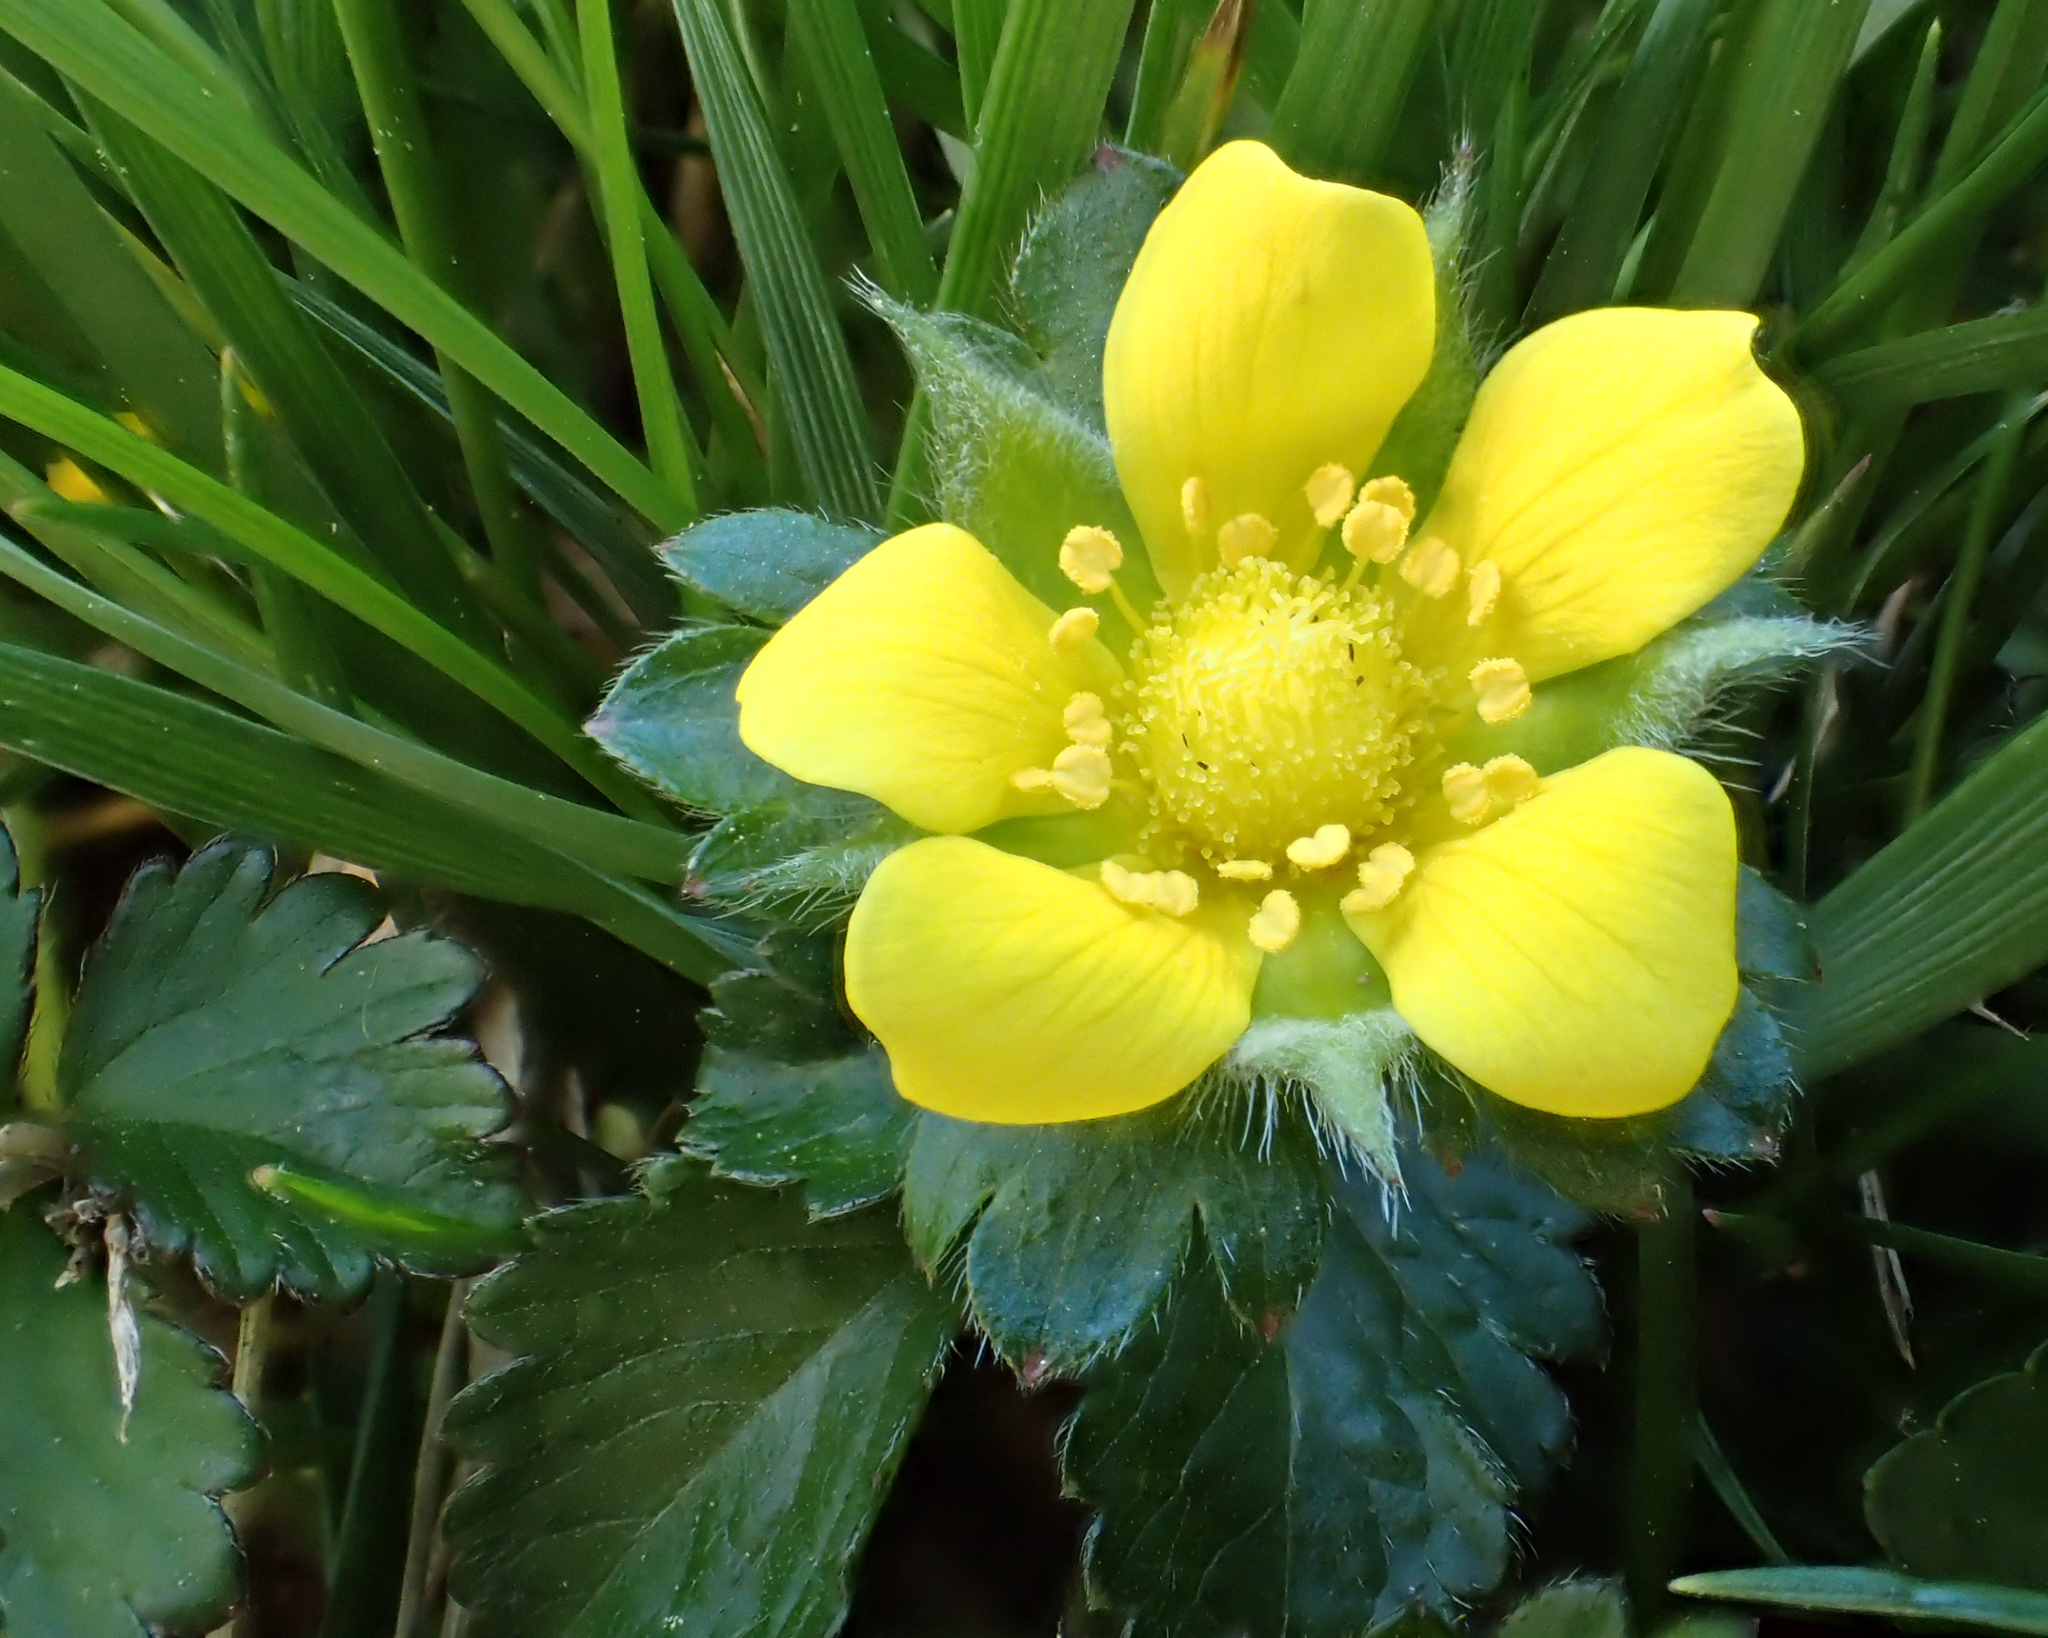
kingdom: Plantae
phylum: Tracheophyta
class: Magnoliopsida
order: Rosales
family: Rosaceae
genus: Potentilla
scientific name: Potentilla indica
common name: Yellow-flowered strawberry
